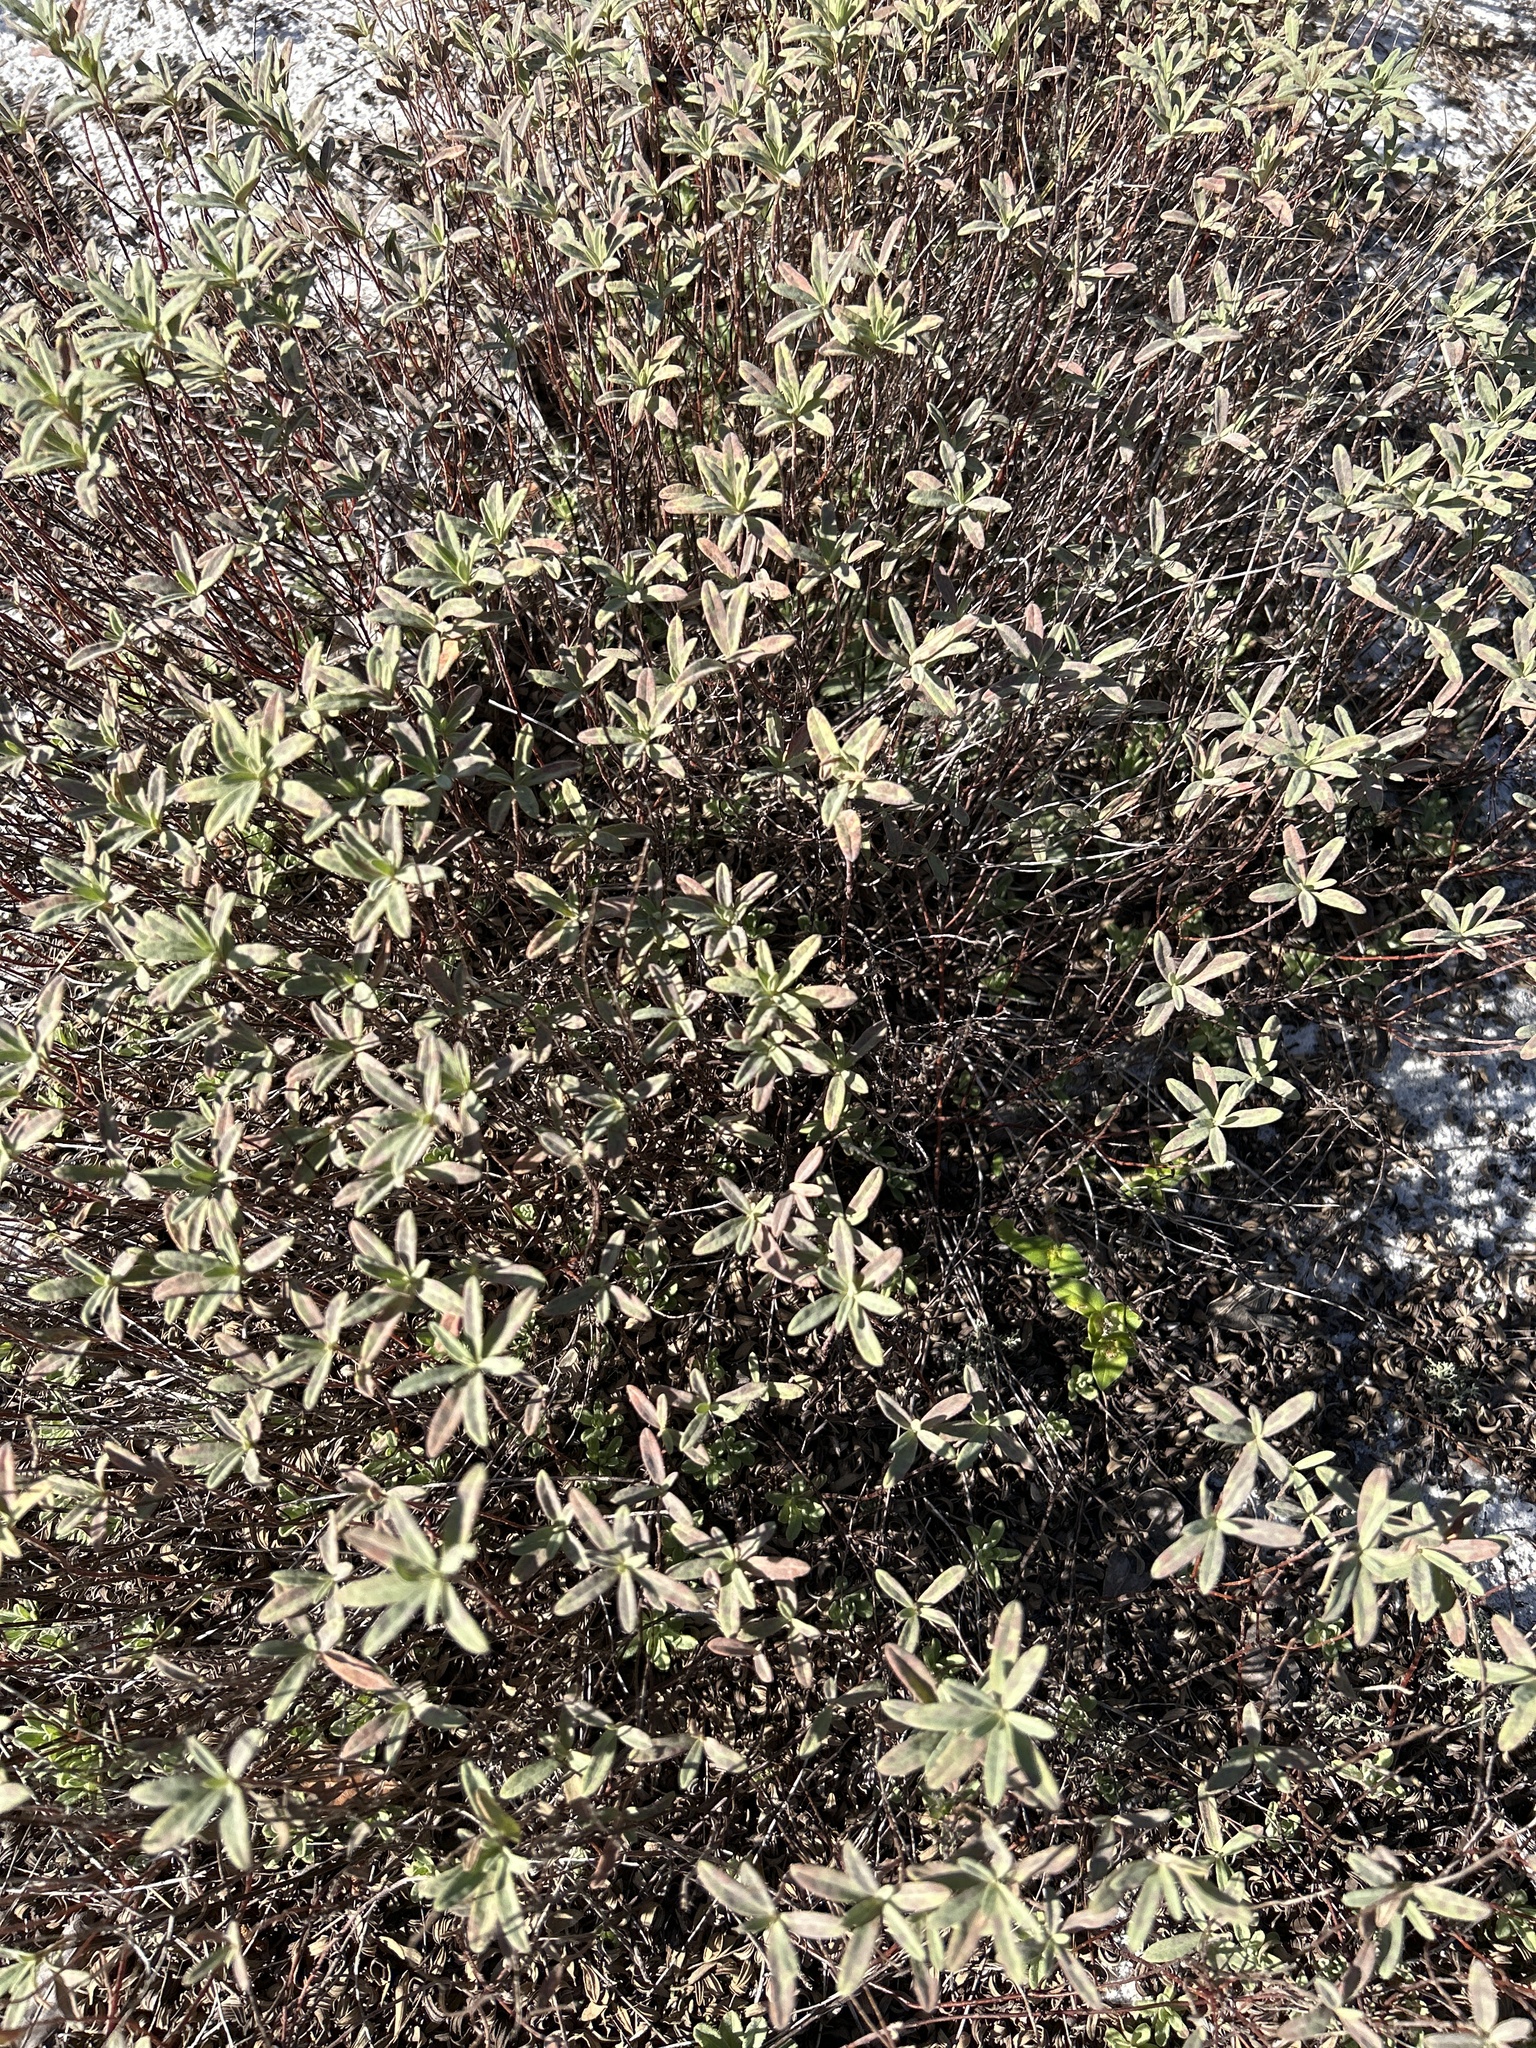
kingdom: Plantae
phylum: Tracheophyta
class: Magnoliopsida
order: Malvales
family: Cistaceae
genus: Crocanthemum
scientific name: Crocanthemum nashii
